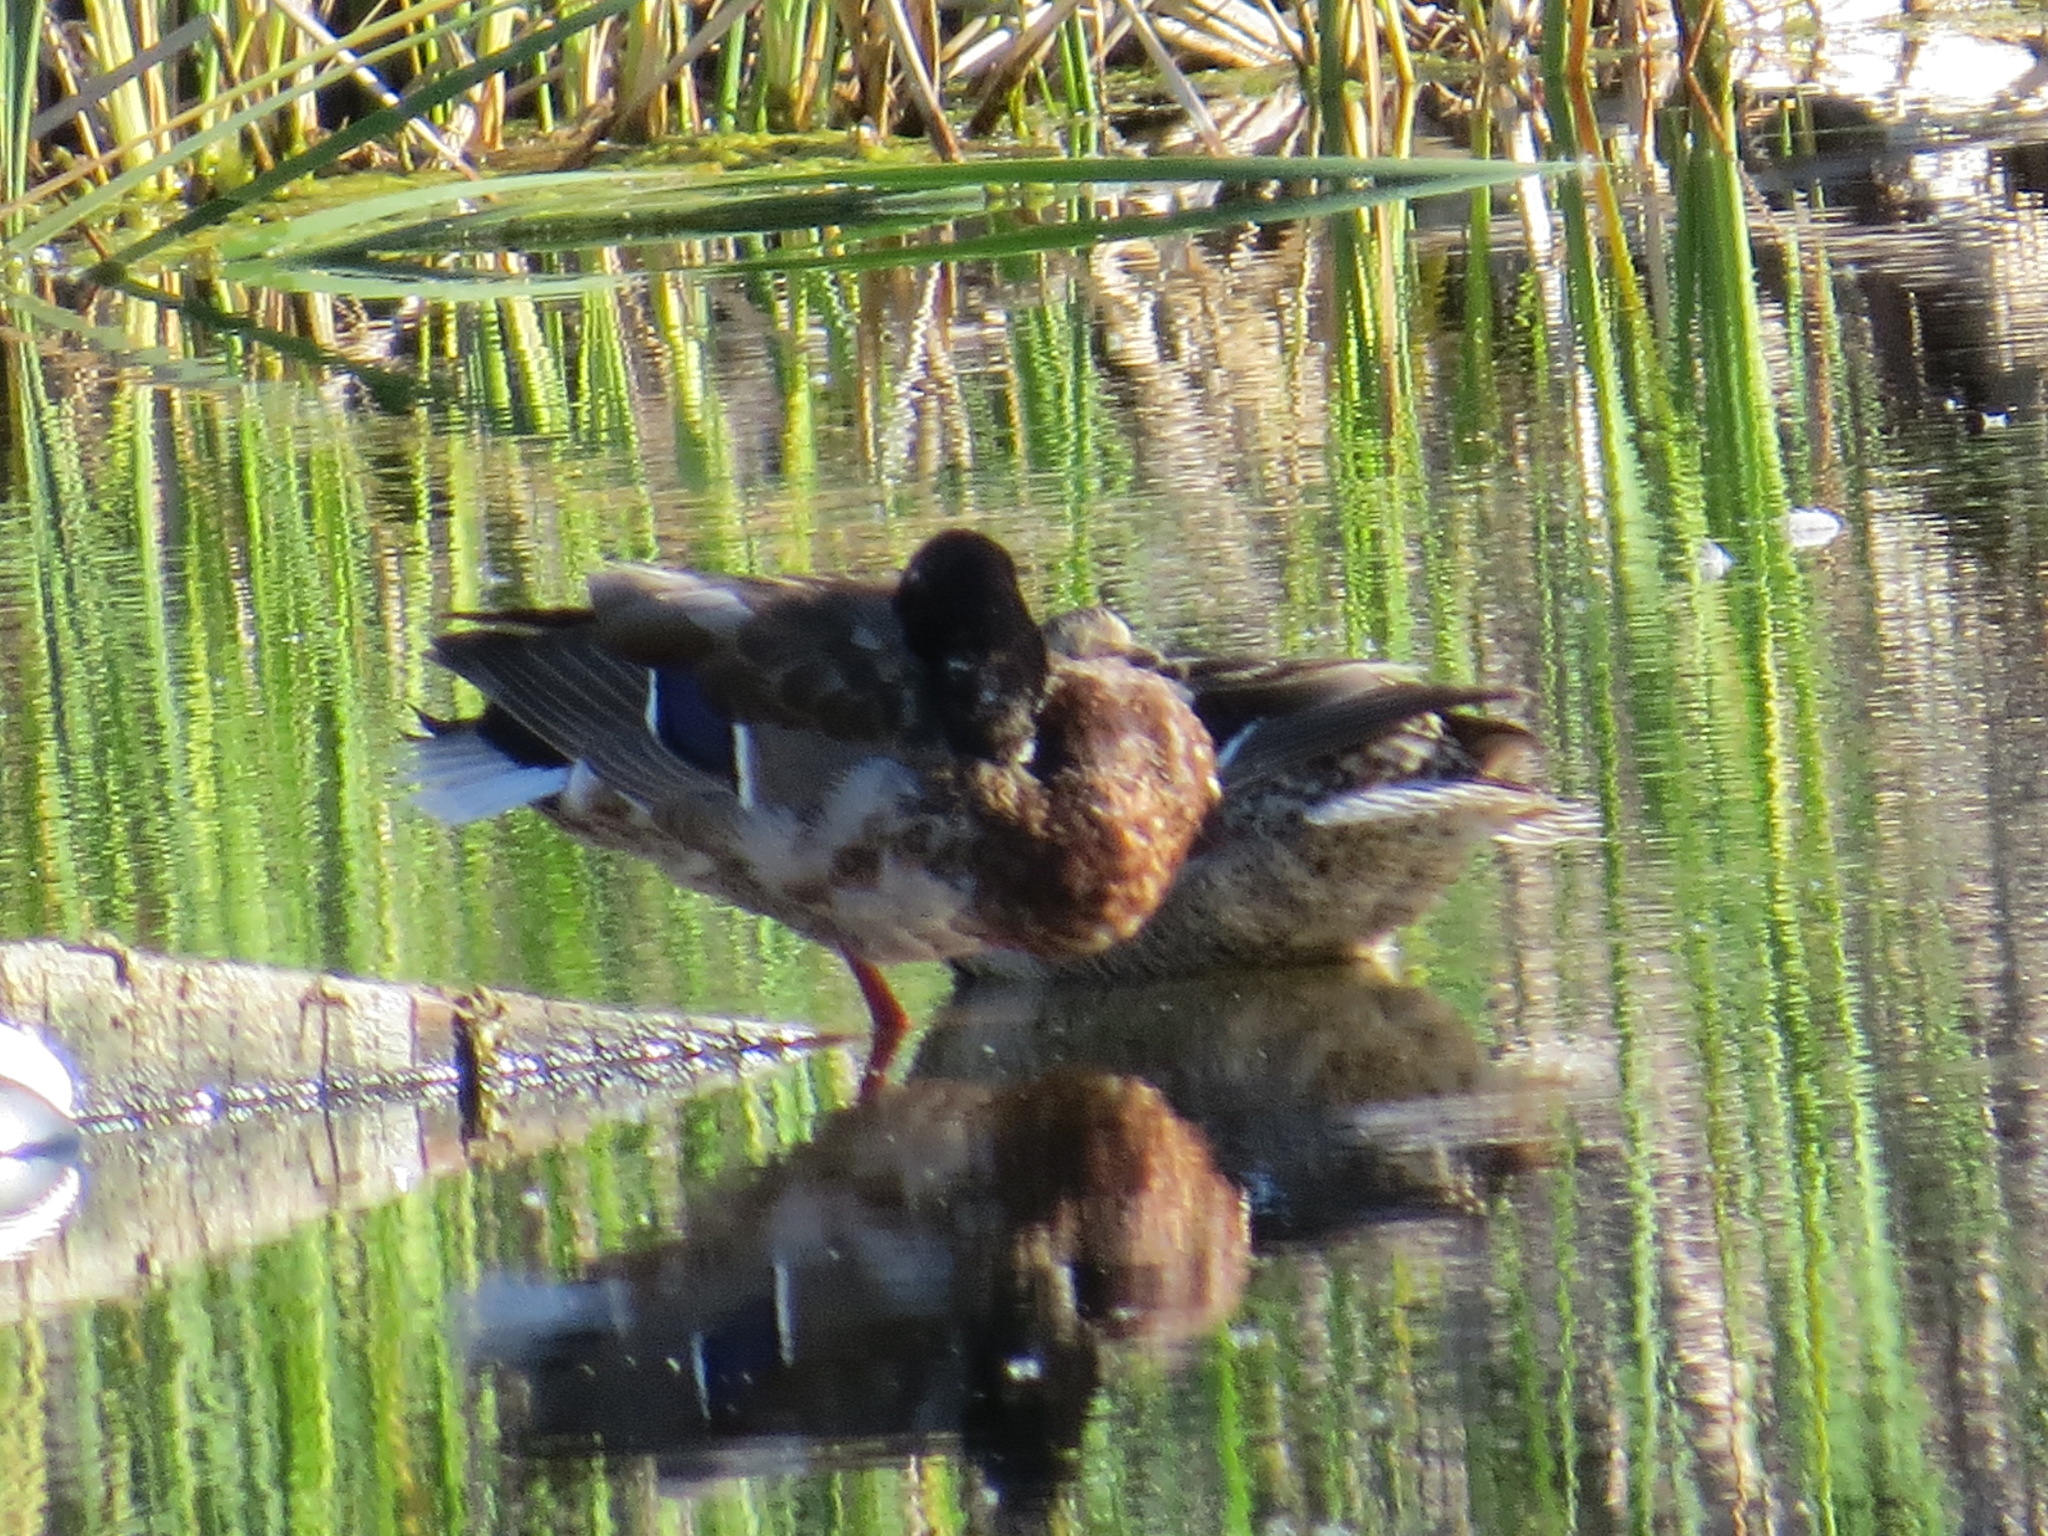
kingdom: Animalia
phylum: Chordata
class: Aves
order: Anseriformes
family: Anatidae
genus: Anas
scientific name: Anas platyrhynchos
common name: Mallard
